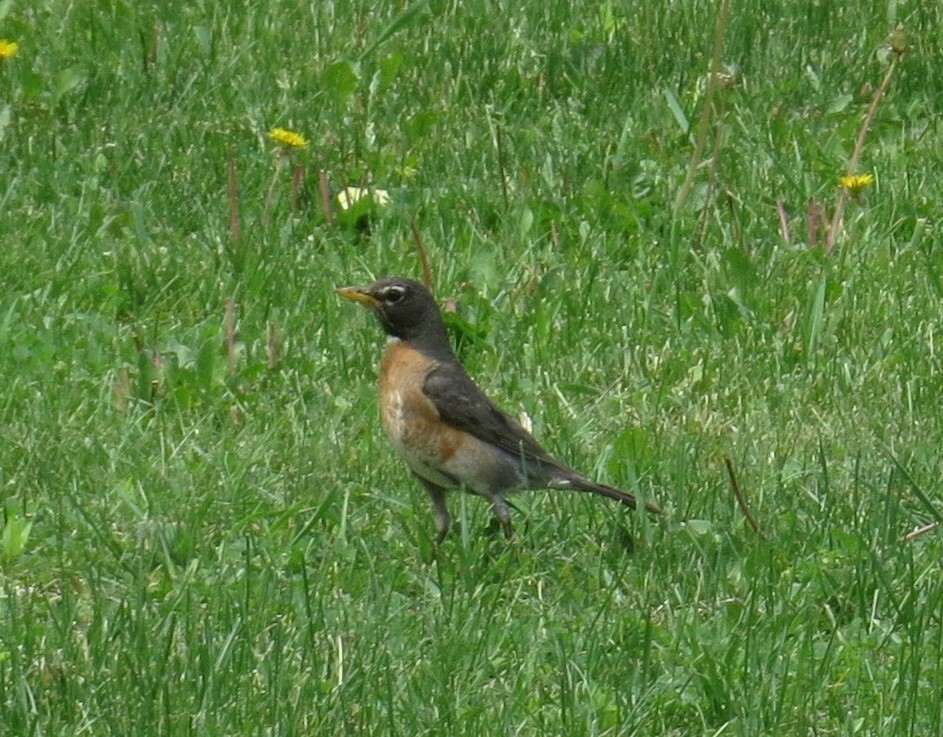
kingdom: Animalia
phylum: Chordata
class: Aves
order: Passeriformes
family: Turdidae
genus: Turdus
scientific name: Turdus migratorius
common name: American robin
